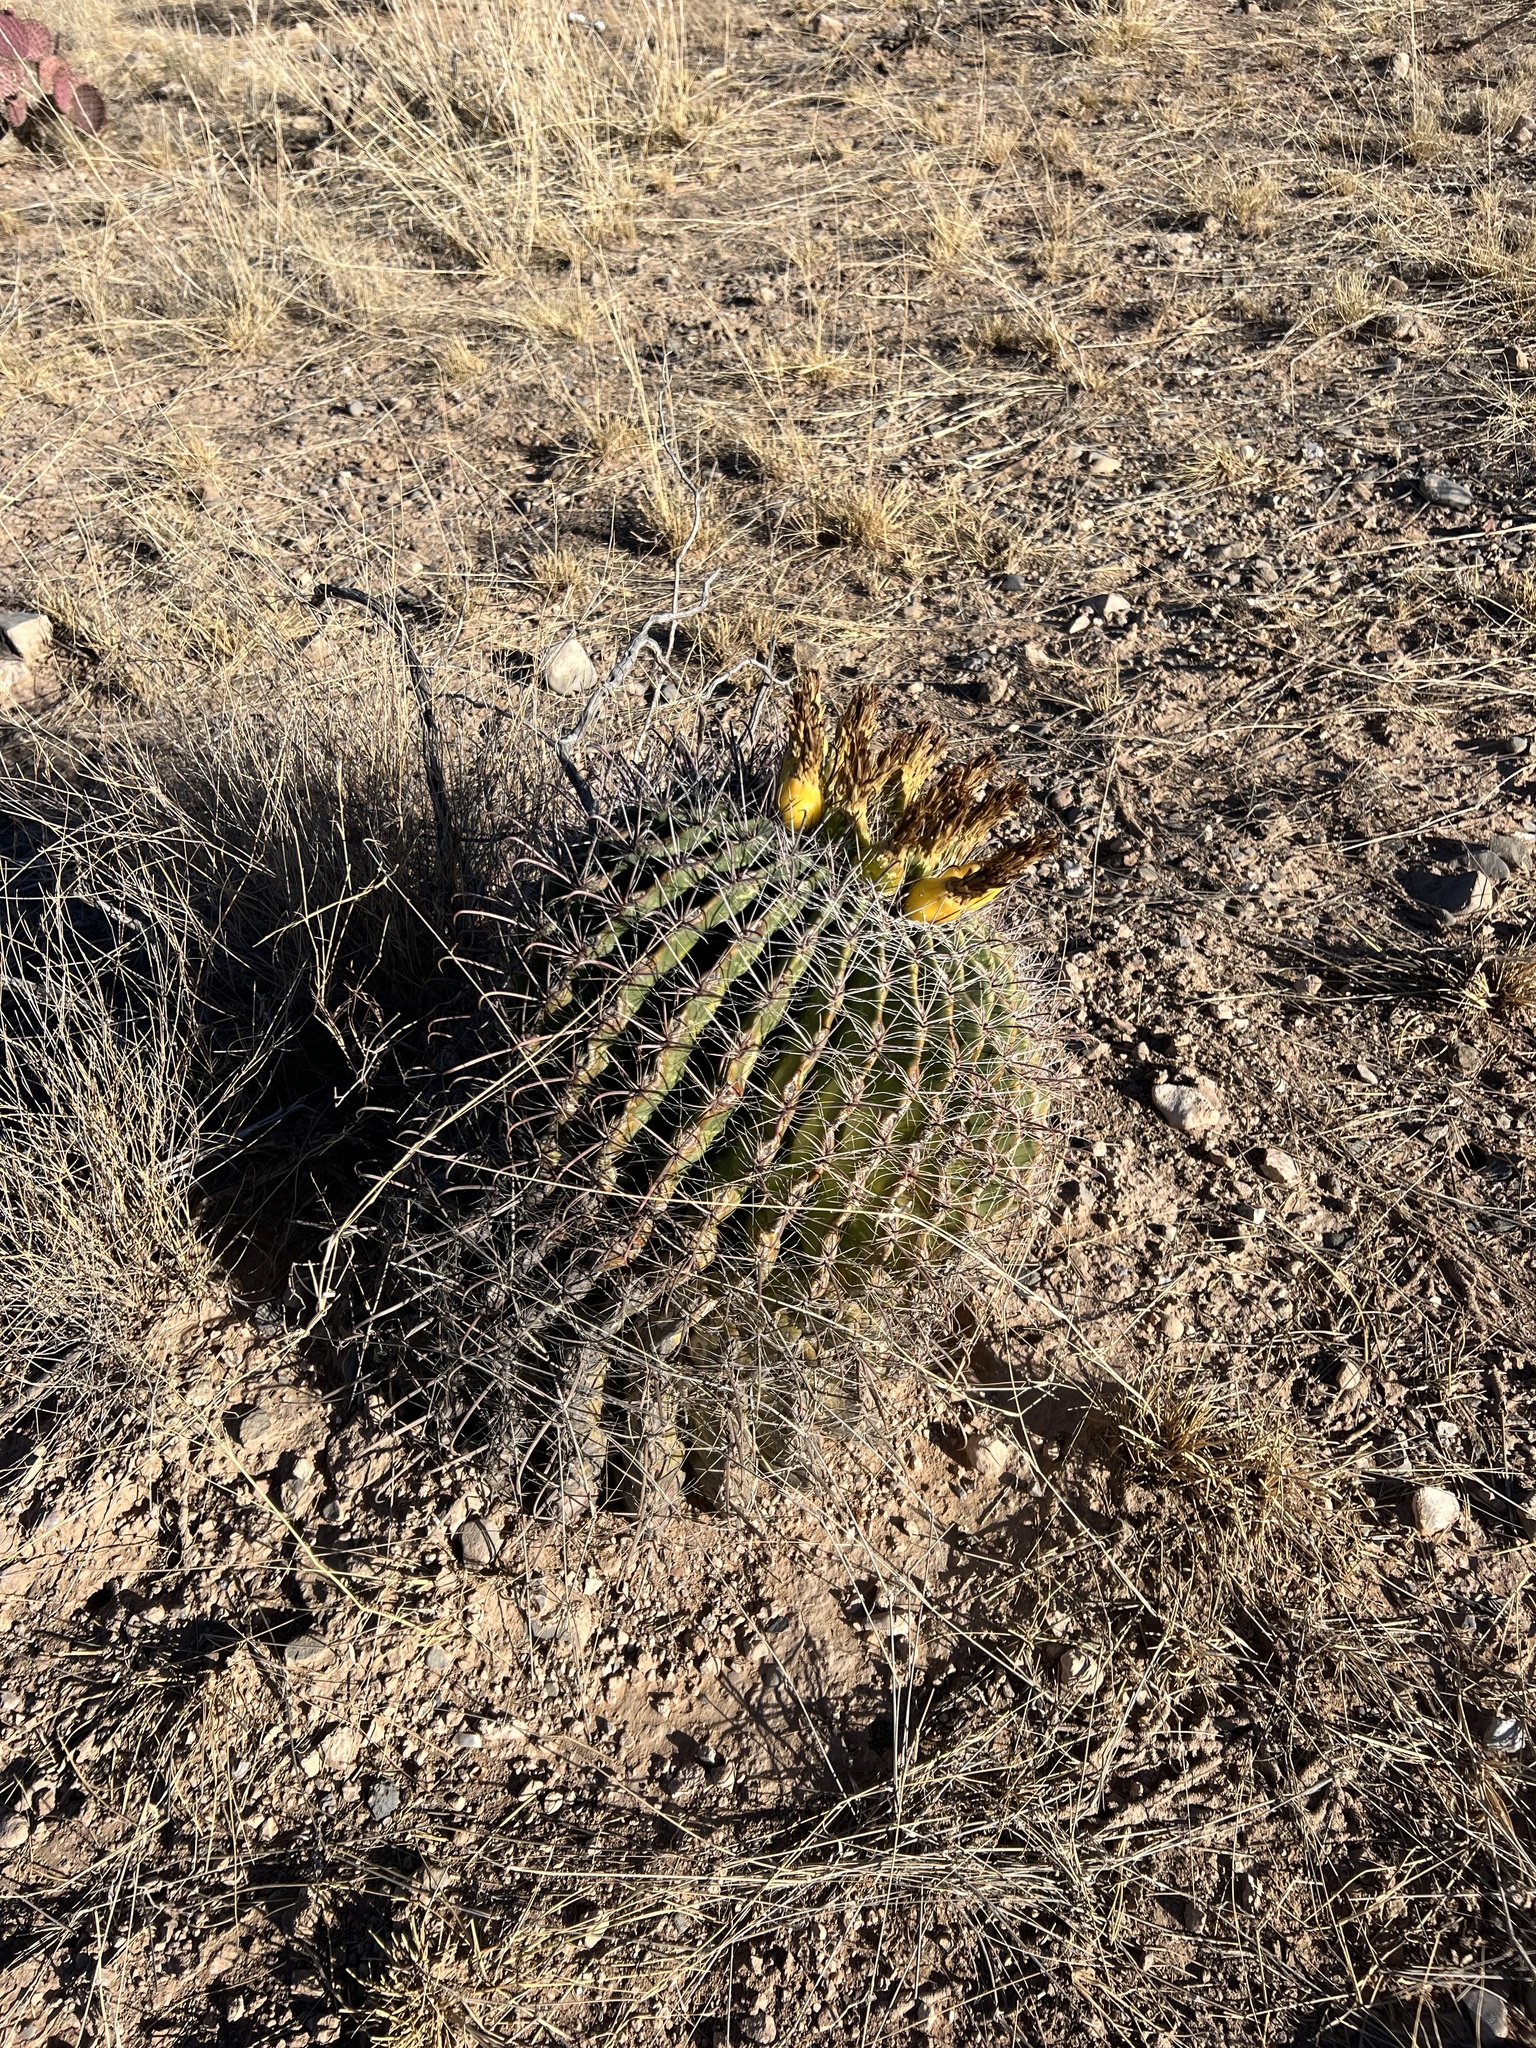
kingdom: Plantae
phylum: Tracheophyta
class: Magnoliopsida
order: Caryophyllales
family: Cactaceae
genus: Ferocactus
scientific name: Ferocactus wislizeni
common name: Candy barrel cactus
